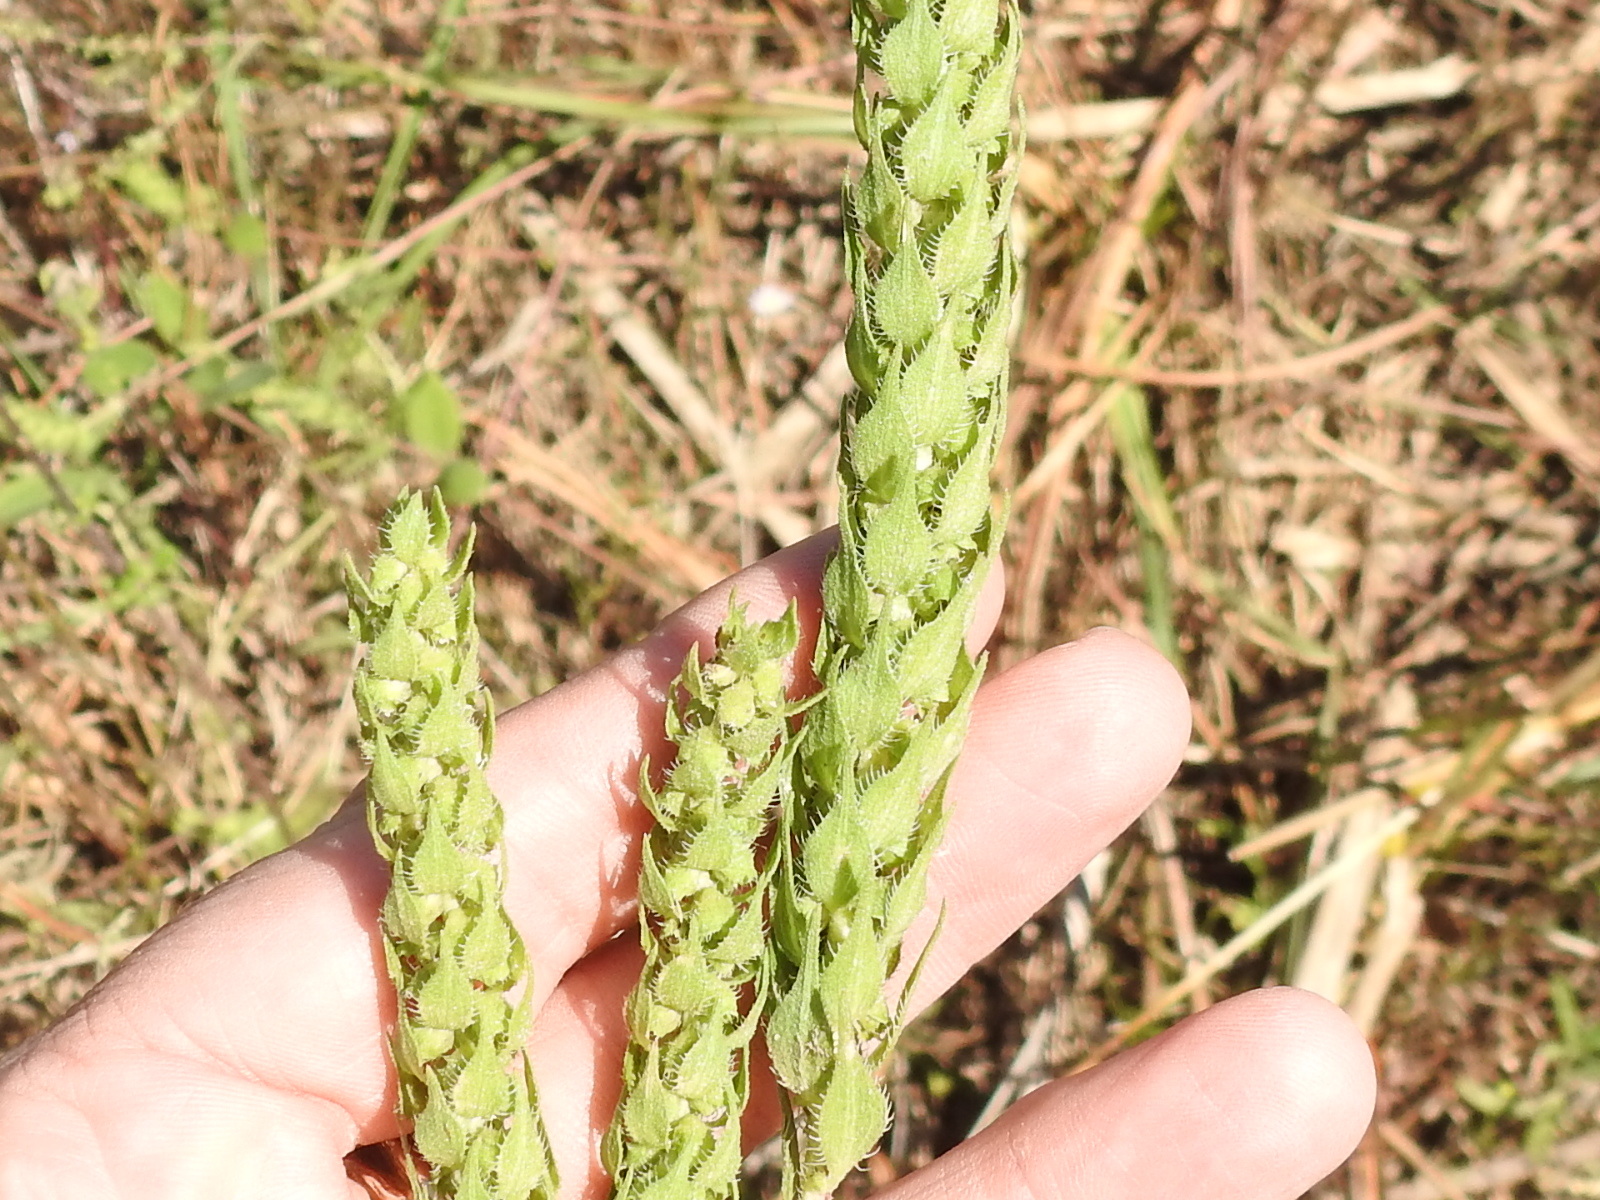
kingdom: Plantae
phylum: Tracheophyta
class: Magnoliopsida
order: Asterales
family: Asteraceae
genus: Iva
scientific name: Iva annua
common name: Marsh-elder
